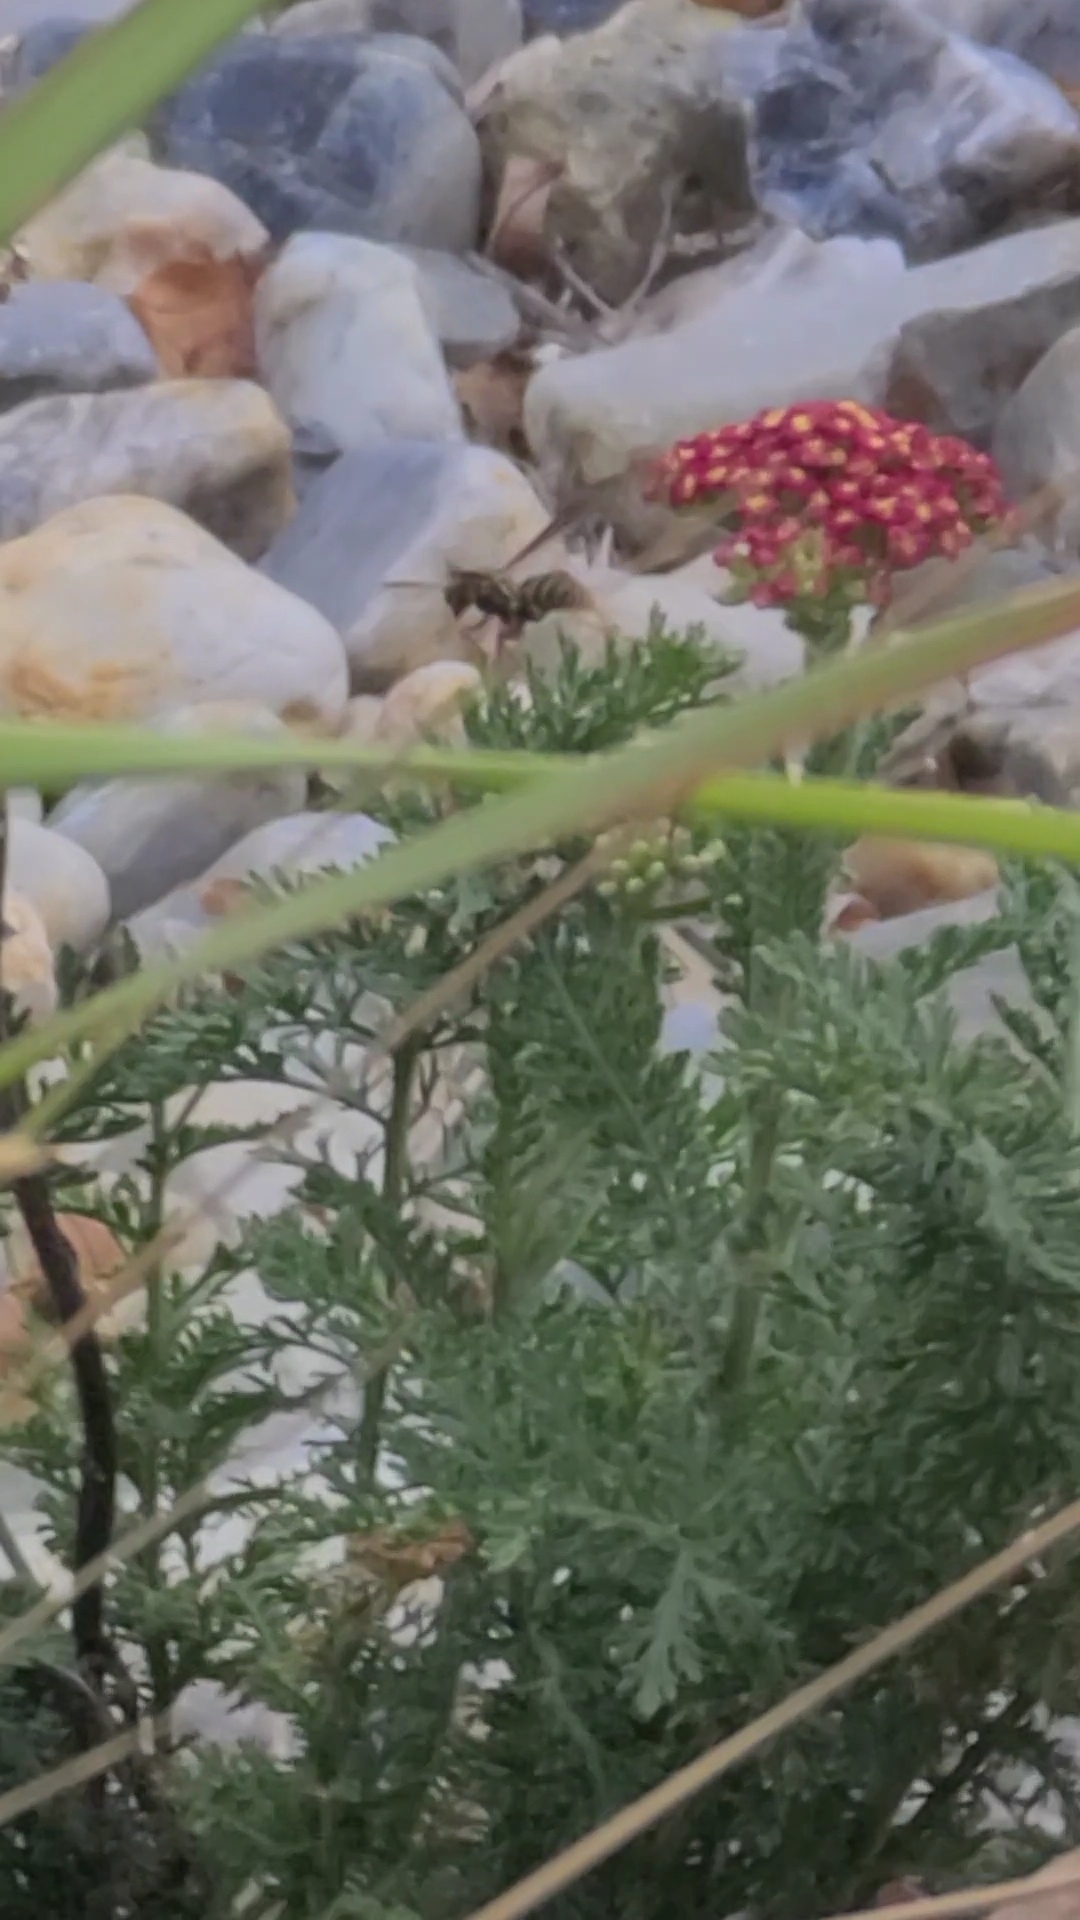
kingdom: Animalia
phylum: Arthropoda
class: Insecta
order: Hymenoptera
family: Eumenidae
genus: Polistes
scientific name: Polistes exclamans
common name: Paper wasp
